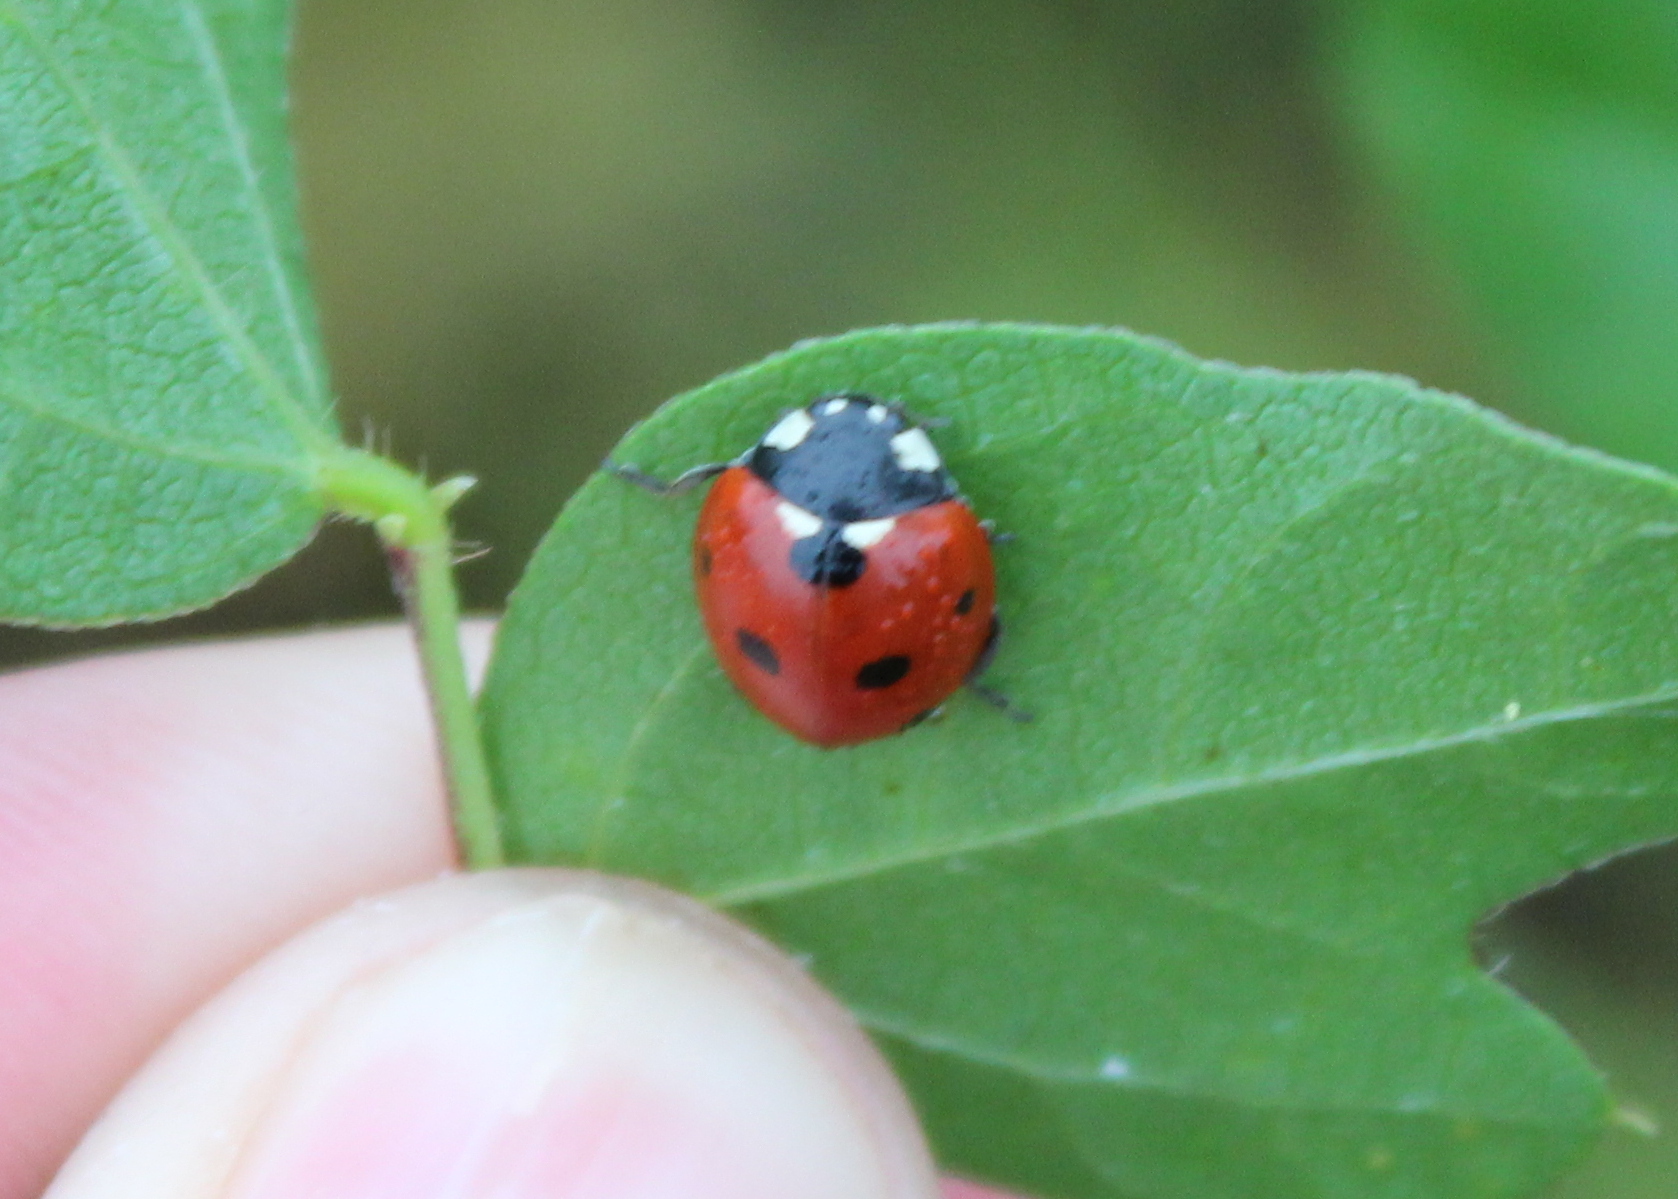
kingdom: Animalia
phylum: Arthropoda
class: Insecta
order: Coleoptera
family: Coccinellidae
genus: Coccinella
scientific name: Coccinella septempunctata
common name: Sevenspotted lady beetle
